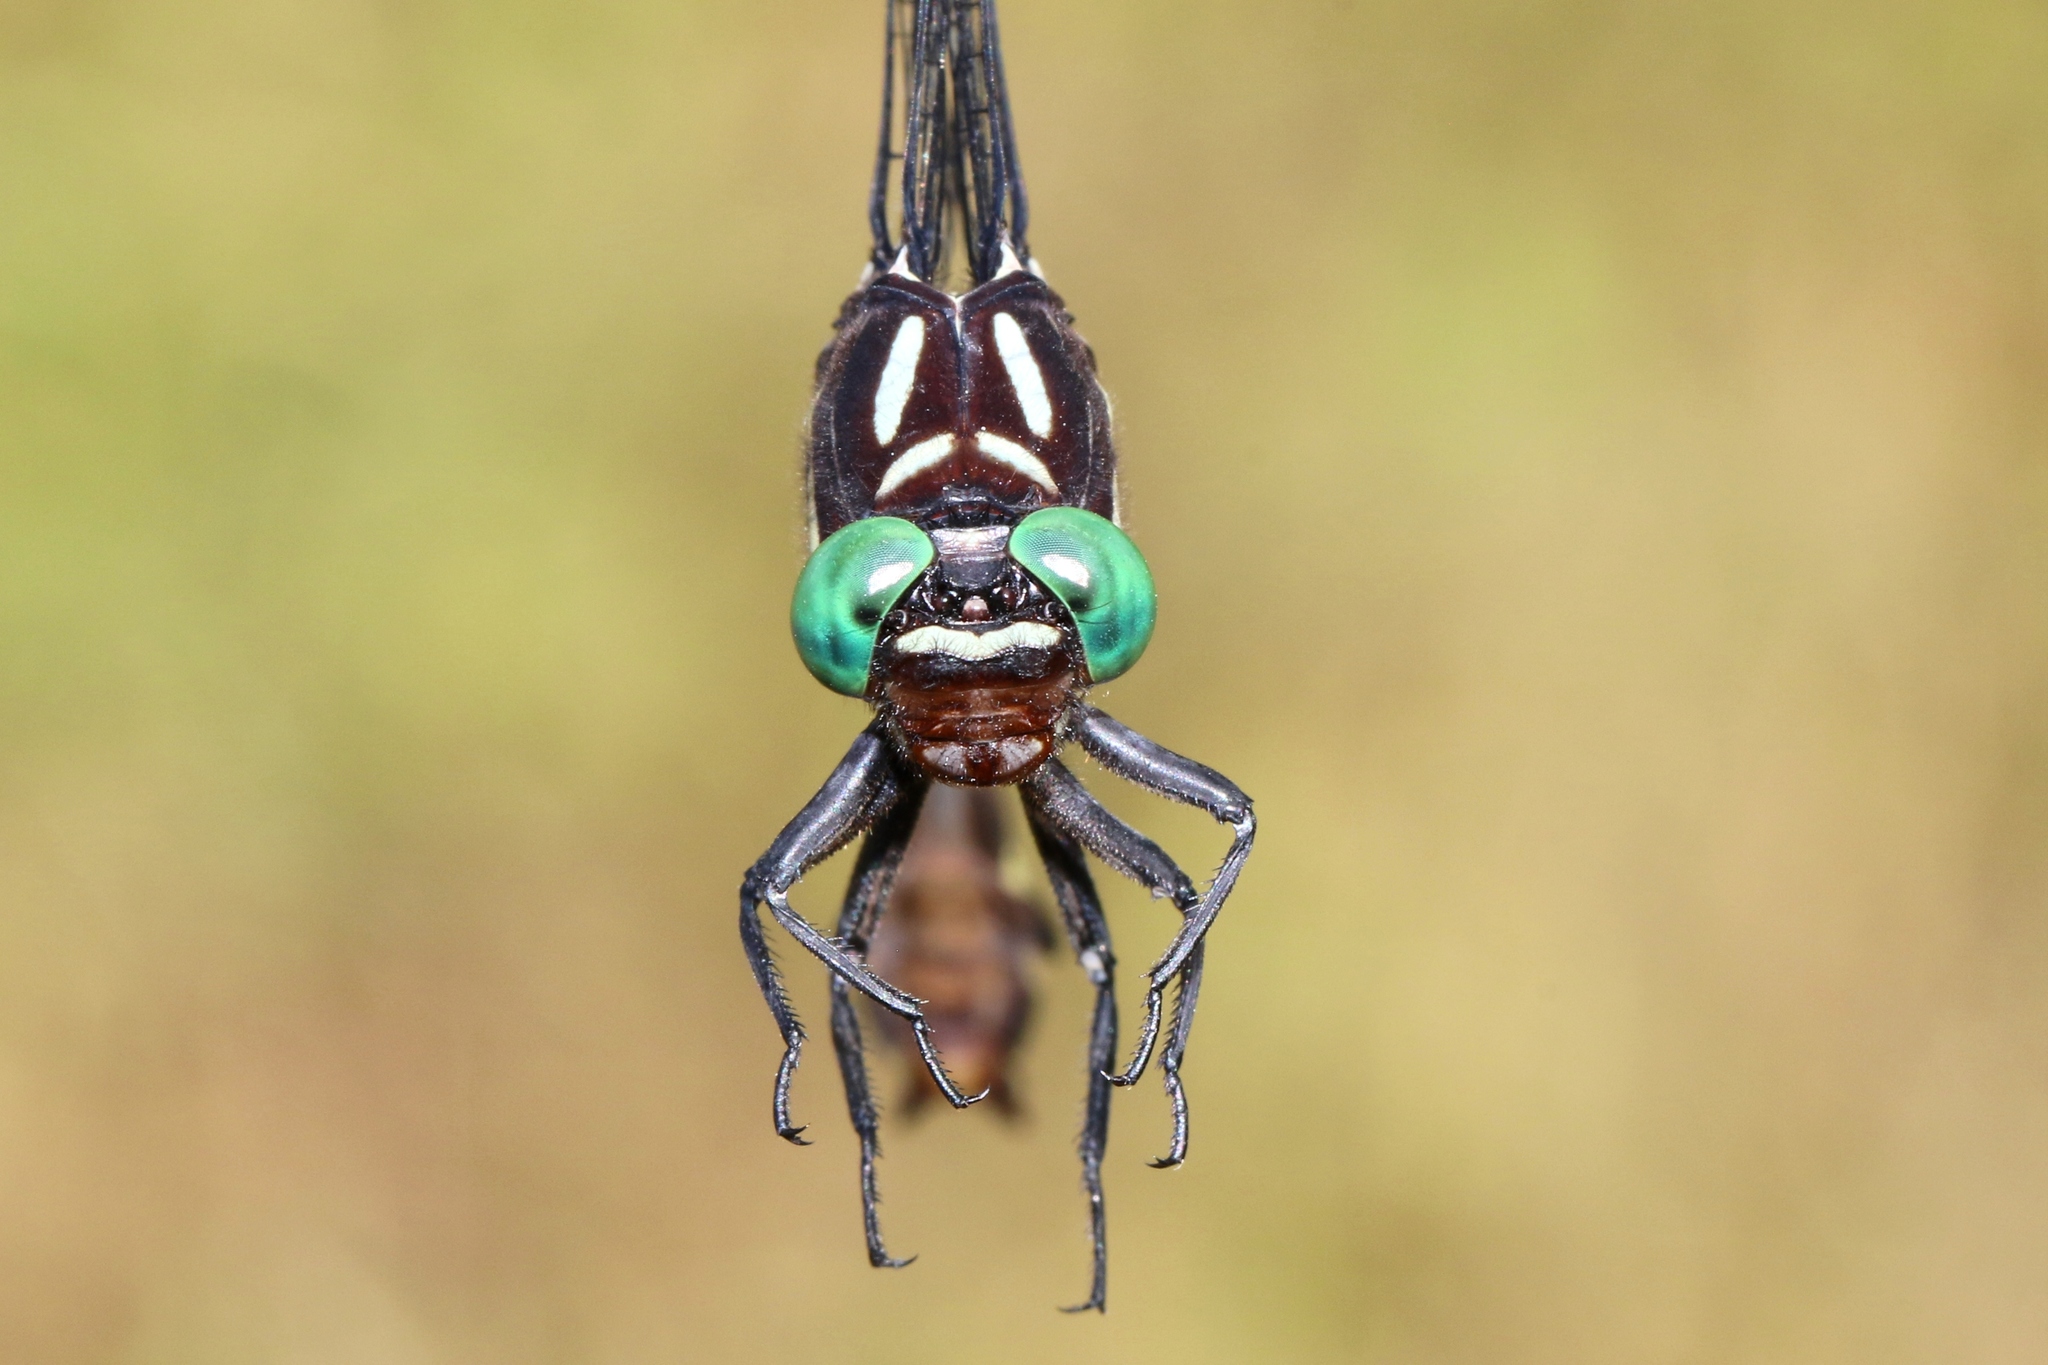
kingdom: Animalia
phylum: Arthropoda
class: Insecta
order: Odonata
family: Gomphidae
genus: Stylurus
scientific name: Stylurus spiniceps
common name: Arrow clubtail
